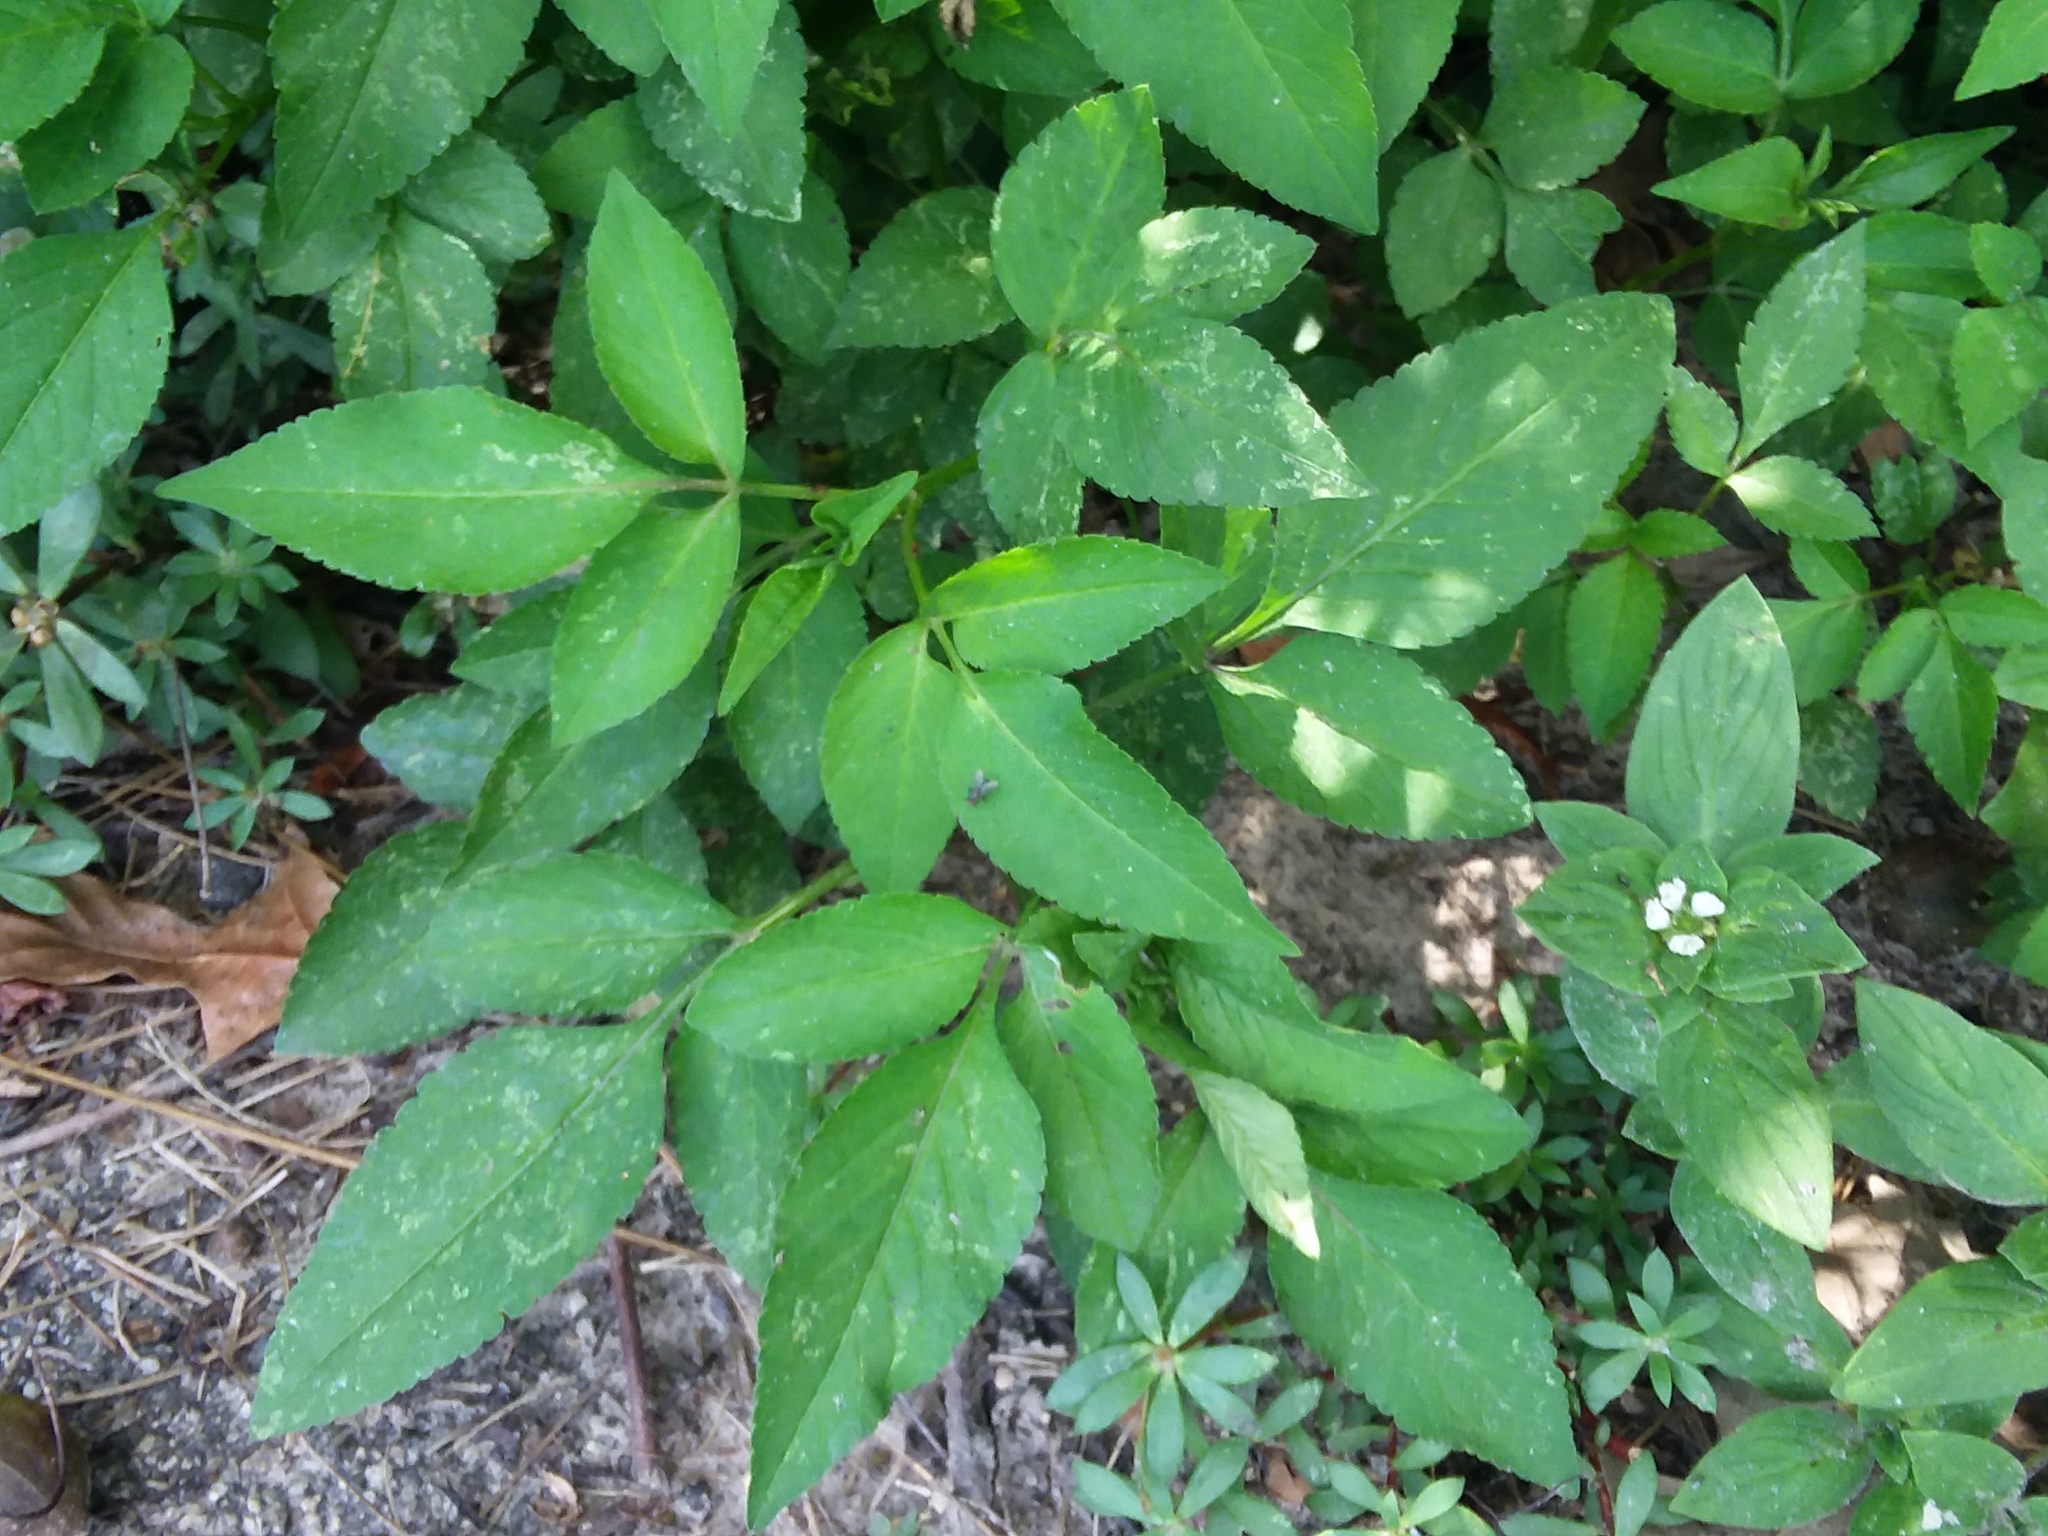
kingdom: Plantae
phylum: Tracheophyta
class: Magnoliopsida
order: Asterales
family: Asteraceae
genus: Bidens
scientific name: Bidens alba
